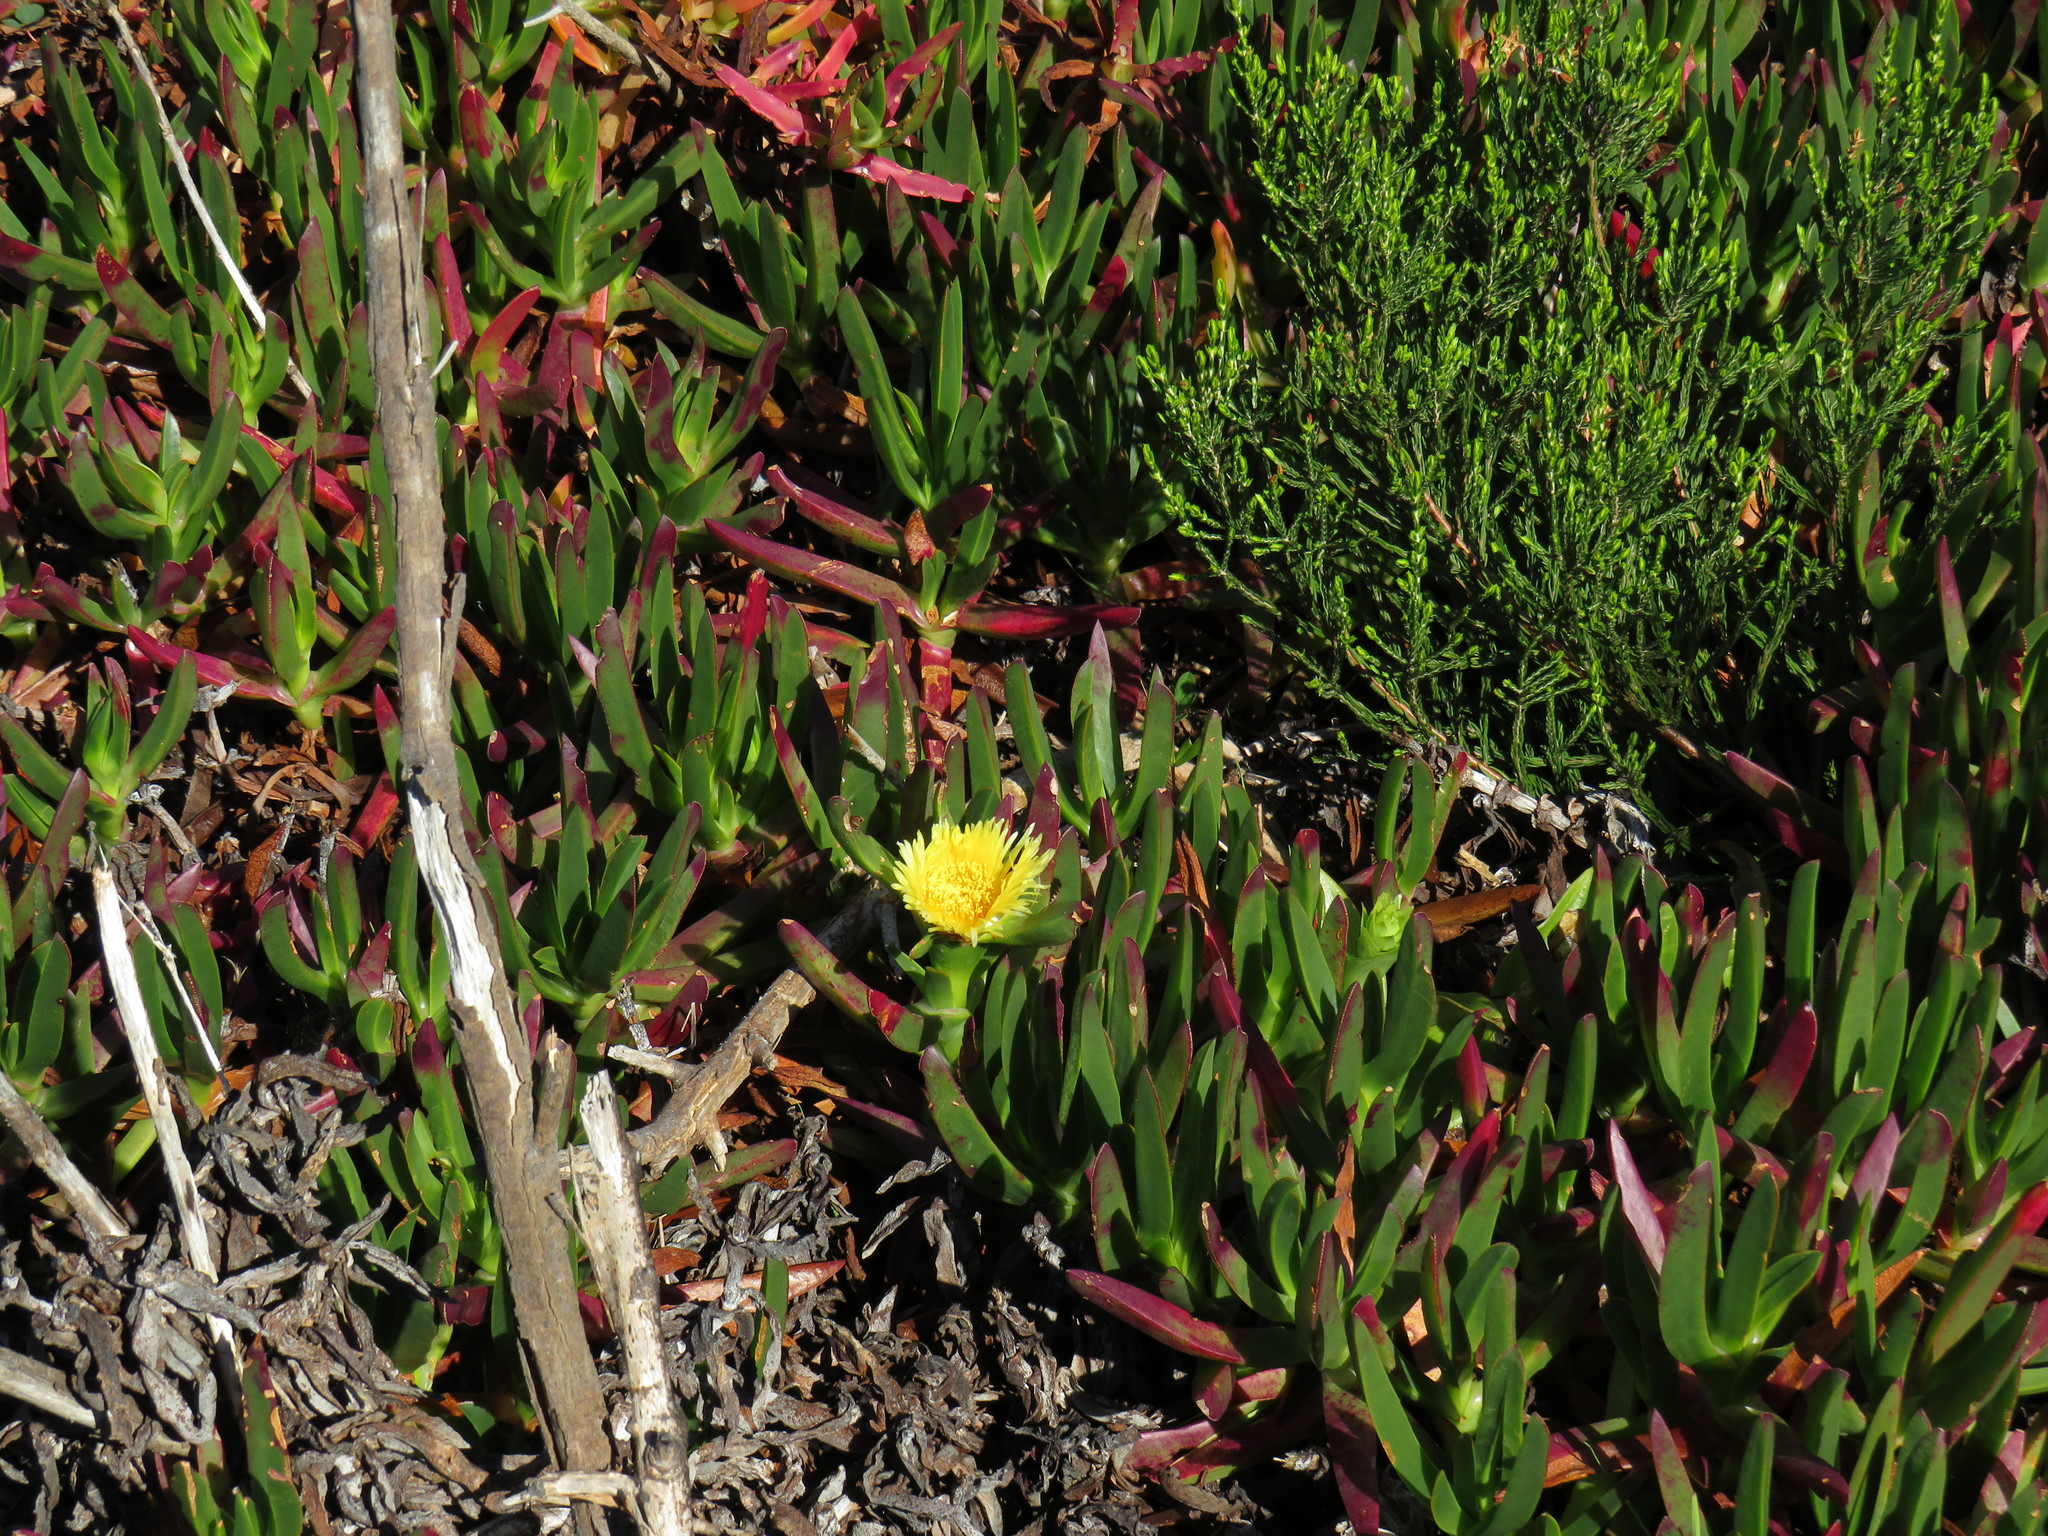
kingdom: Plantae
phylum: Tracheophyta
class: Magnoliopsida
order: Caryophyllales
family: Aizoaceae
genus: Carpobrotus
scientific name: Carpobrotus edulis
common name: Hottentot-fig
